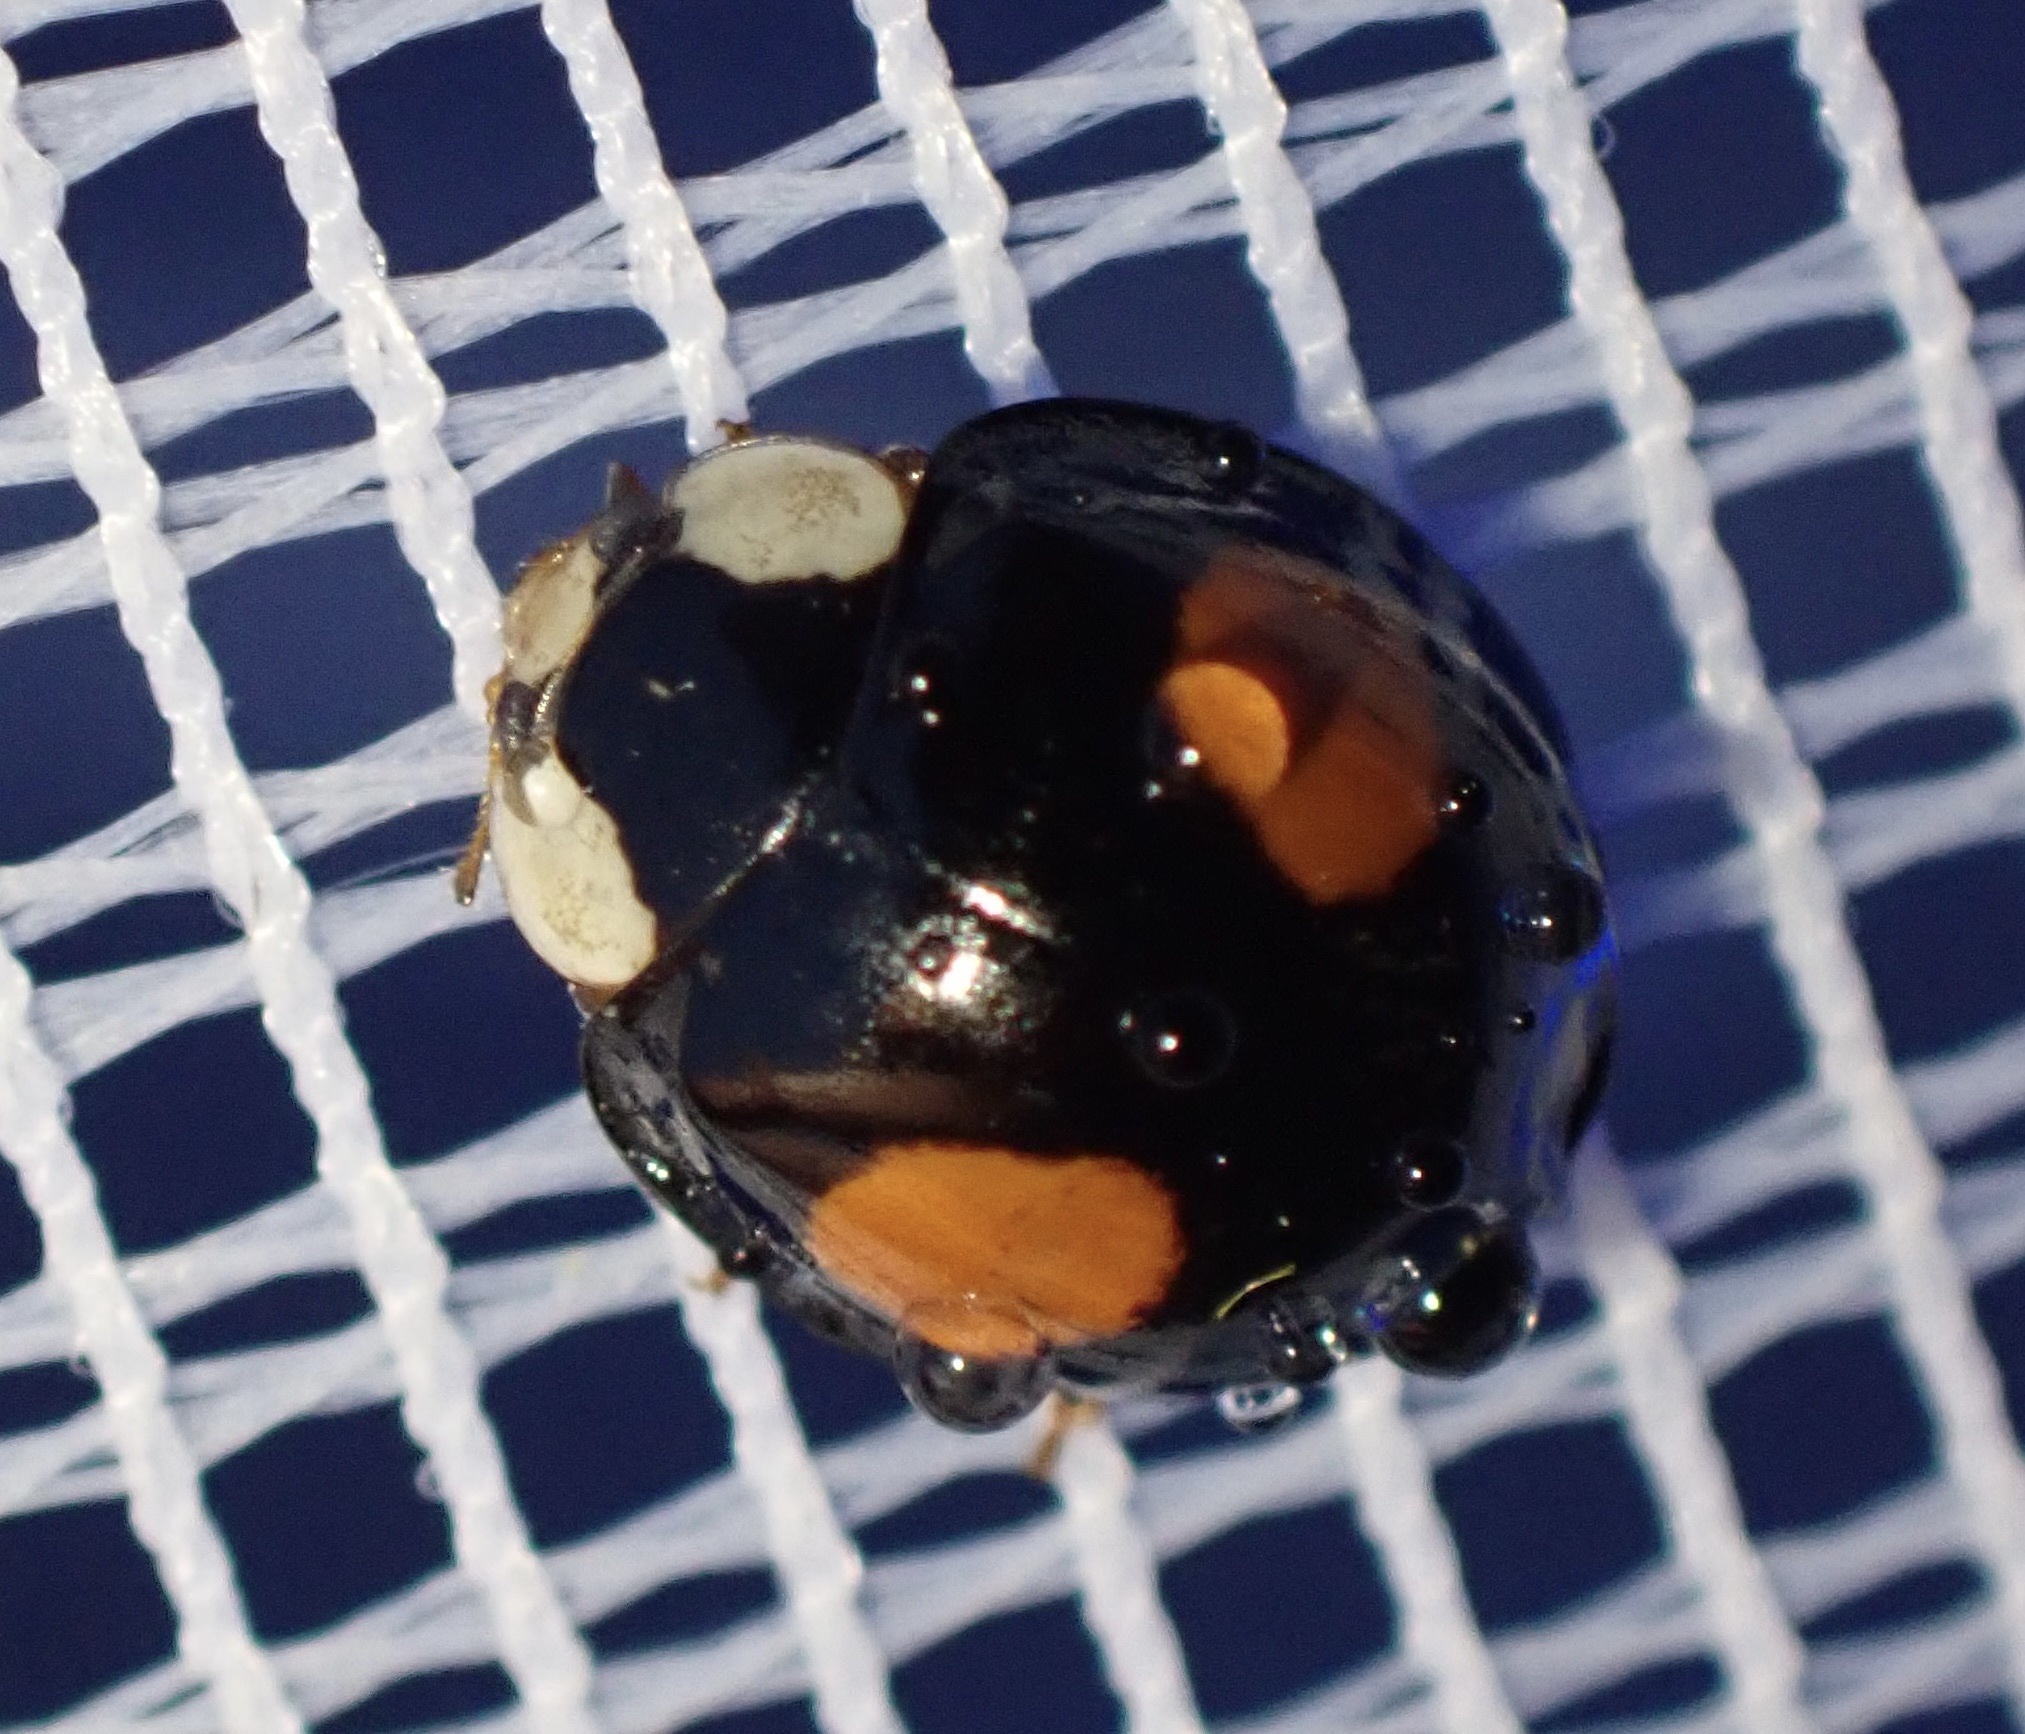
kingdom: Animalia
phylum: Arthropoda
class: Insecta
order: Coleoptera
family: Coccinellidae
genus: Harmonia
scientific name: Harmonia axyridis
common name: Harlequin ladybird
